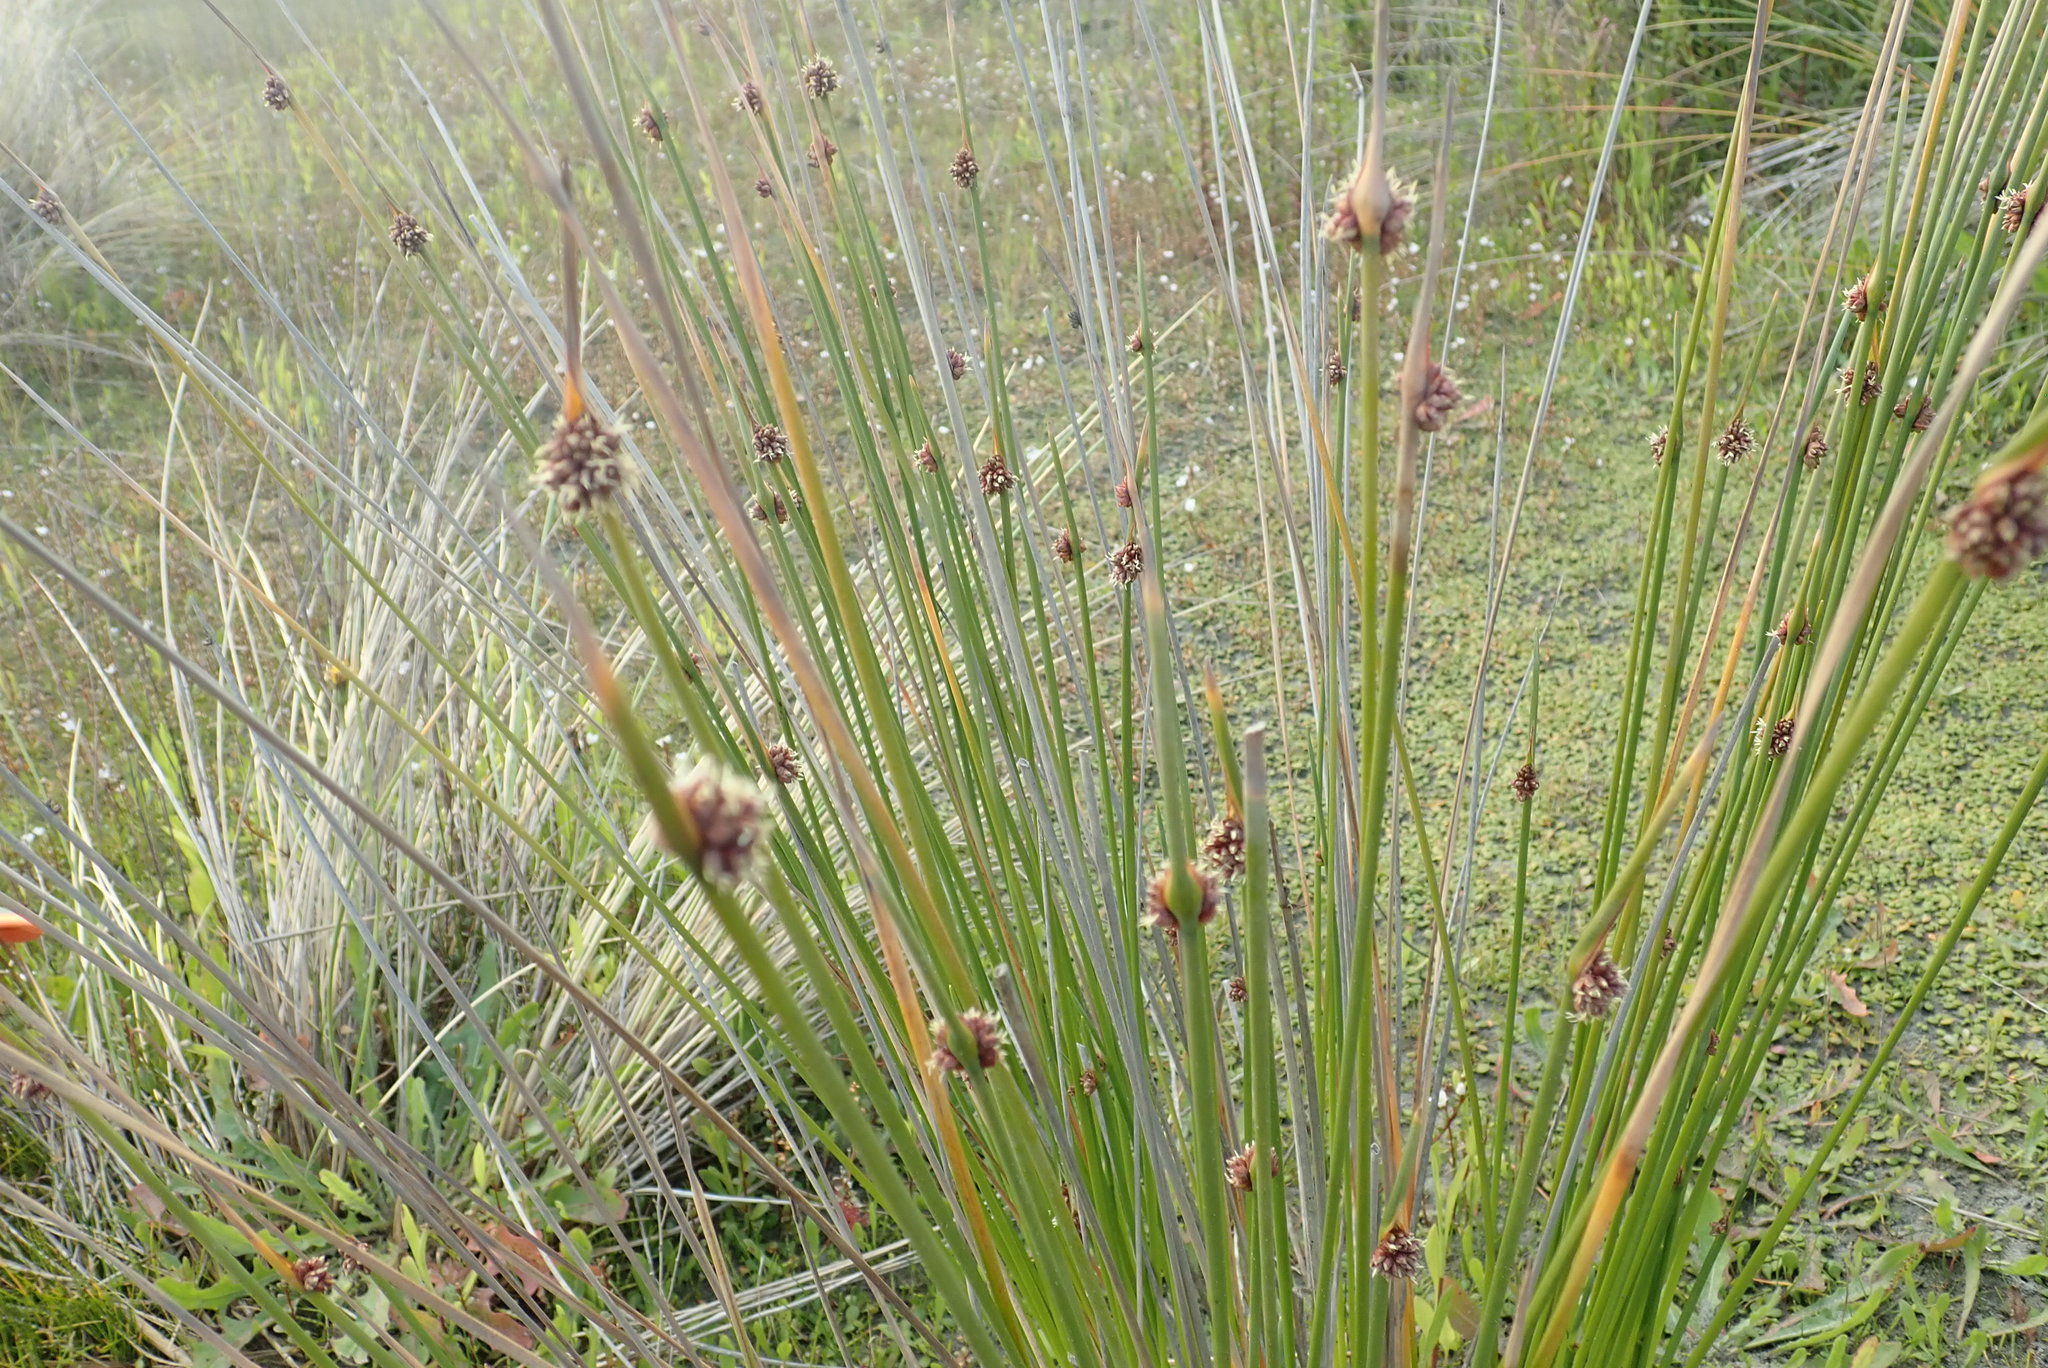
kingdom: Plantae
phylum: Tracheophyta
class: Liliopsida
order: Poales
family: Cyperaceae
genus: Ficinia
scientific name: Ficinia nodosa
